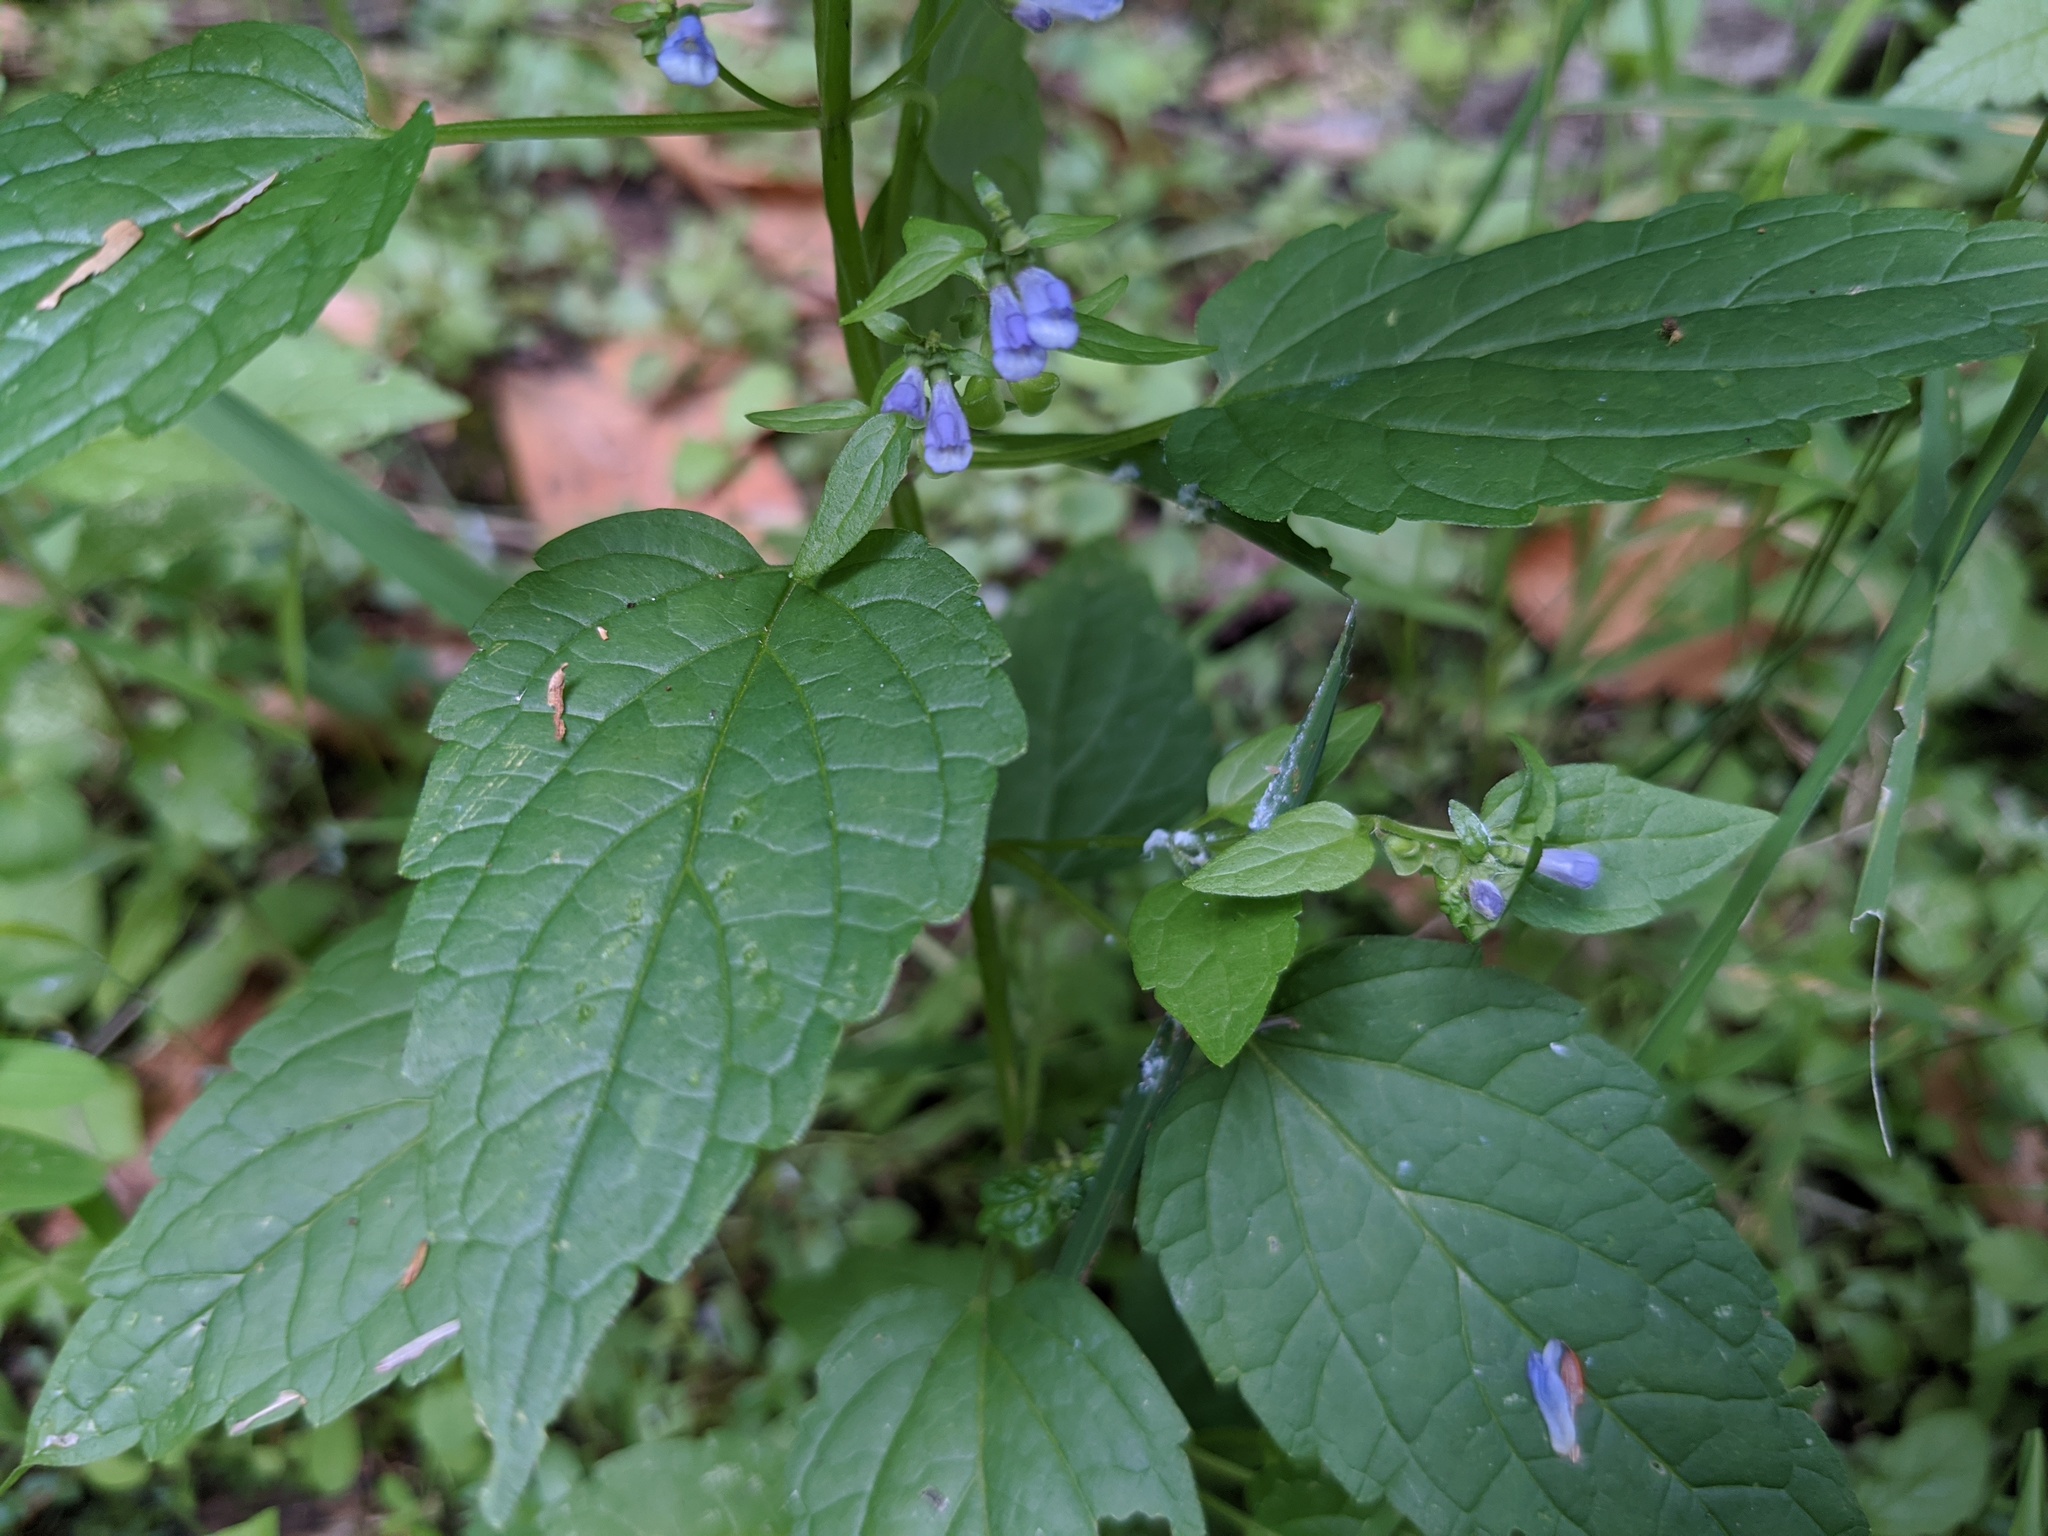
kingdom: Plantae
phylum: Tracheophyta
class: Magnoliopsida
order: Lamiales
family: Lamiaceae
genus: Scutellaria
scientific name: Scutellaria lateriflora
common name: Blue skullcap
